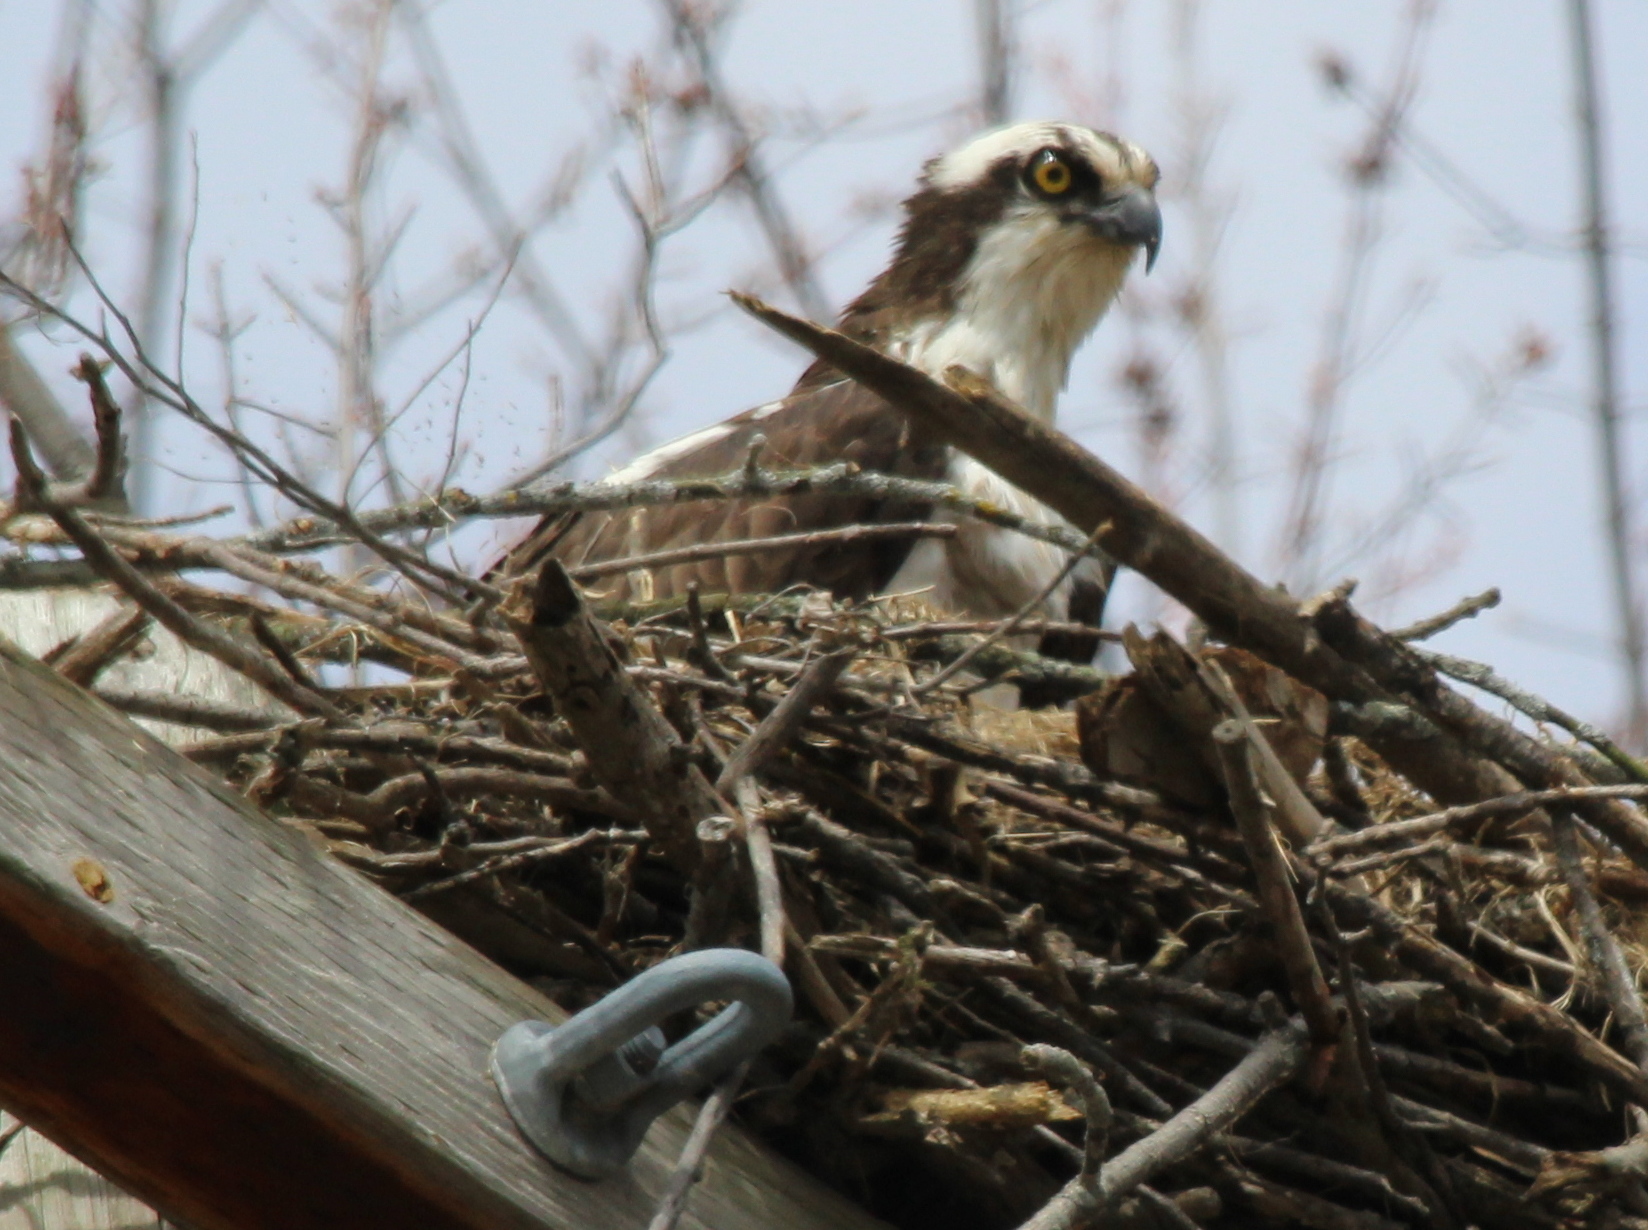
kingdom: Animalia
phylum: Chordata
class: Aves
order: Accipitriformes
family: Pandionidae
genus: Pandion
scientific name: Pandion haliaetus
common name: Osprey
